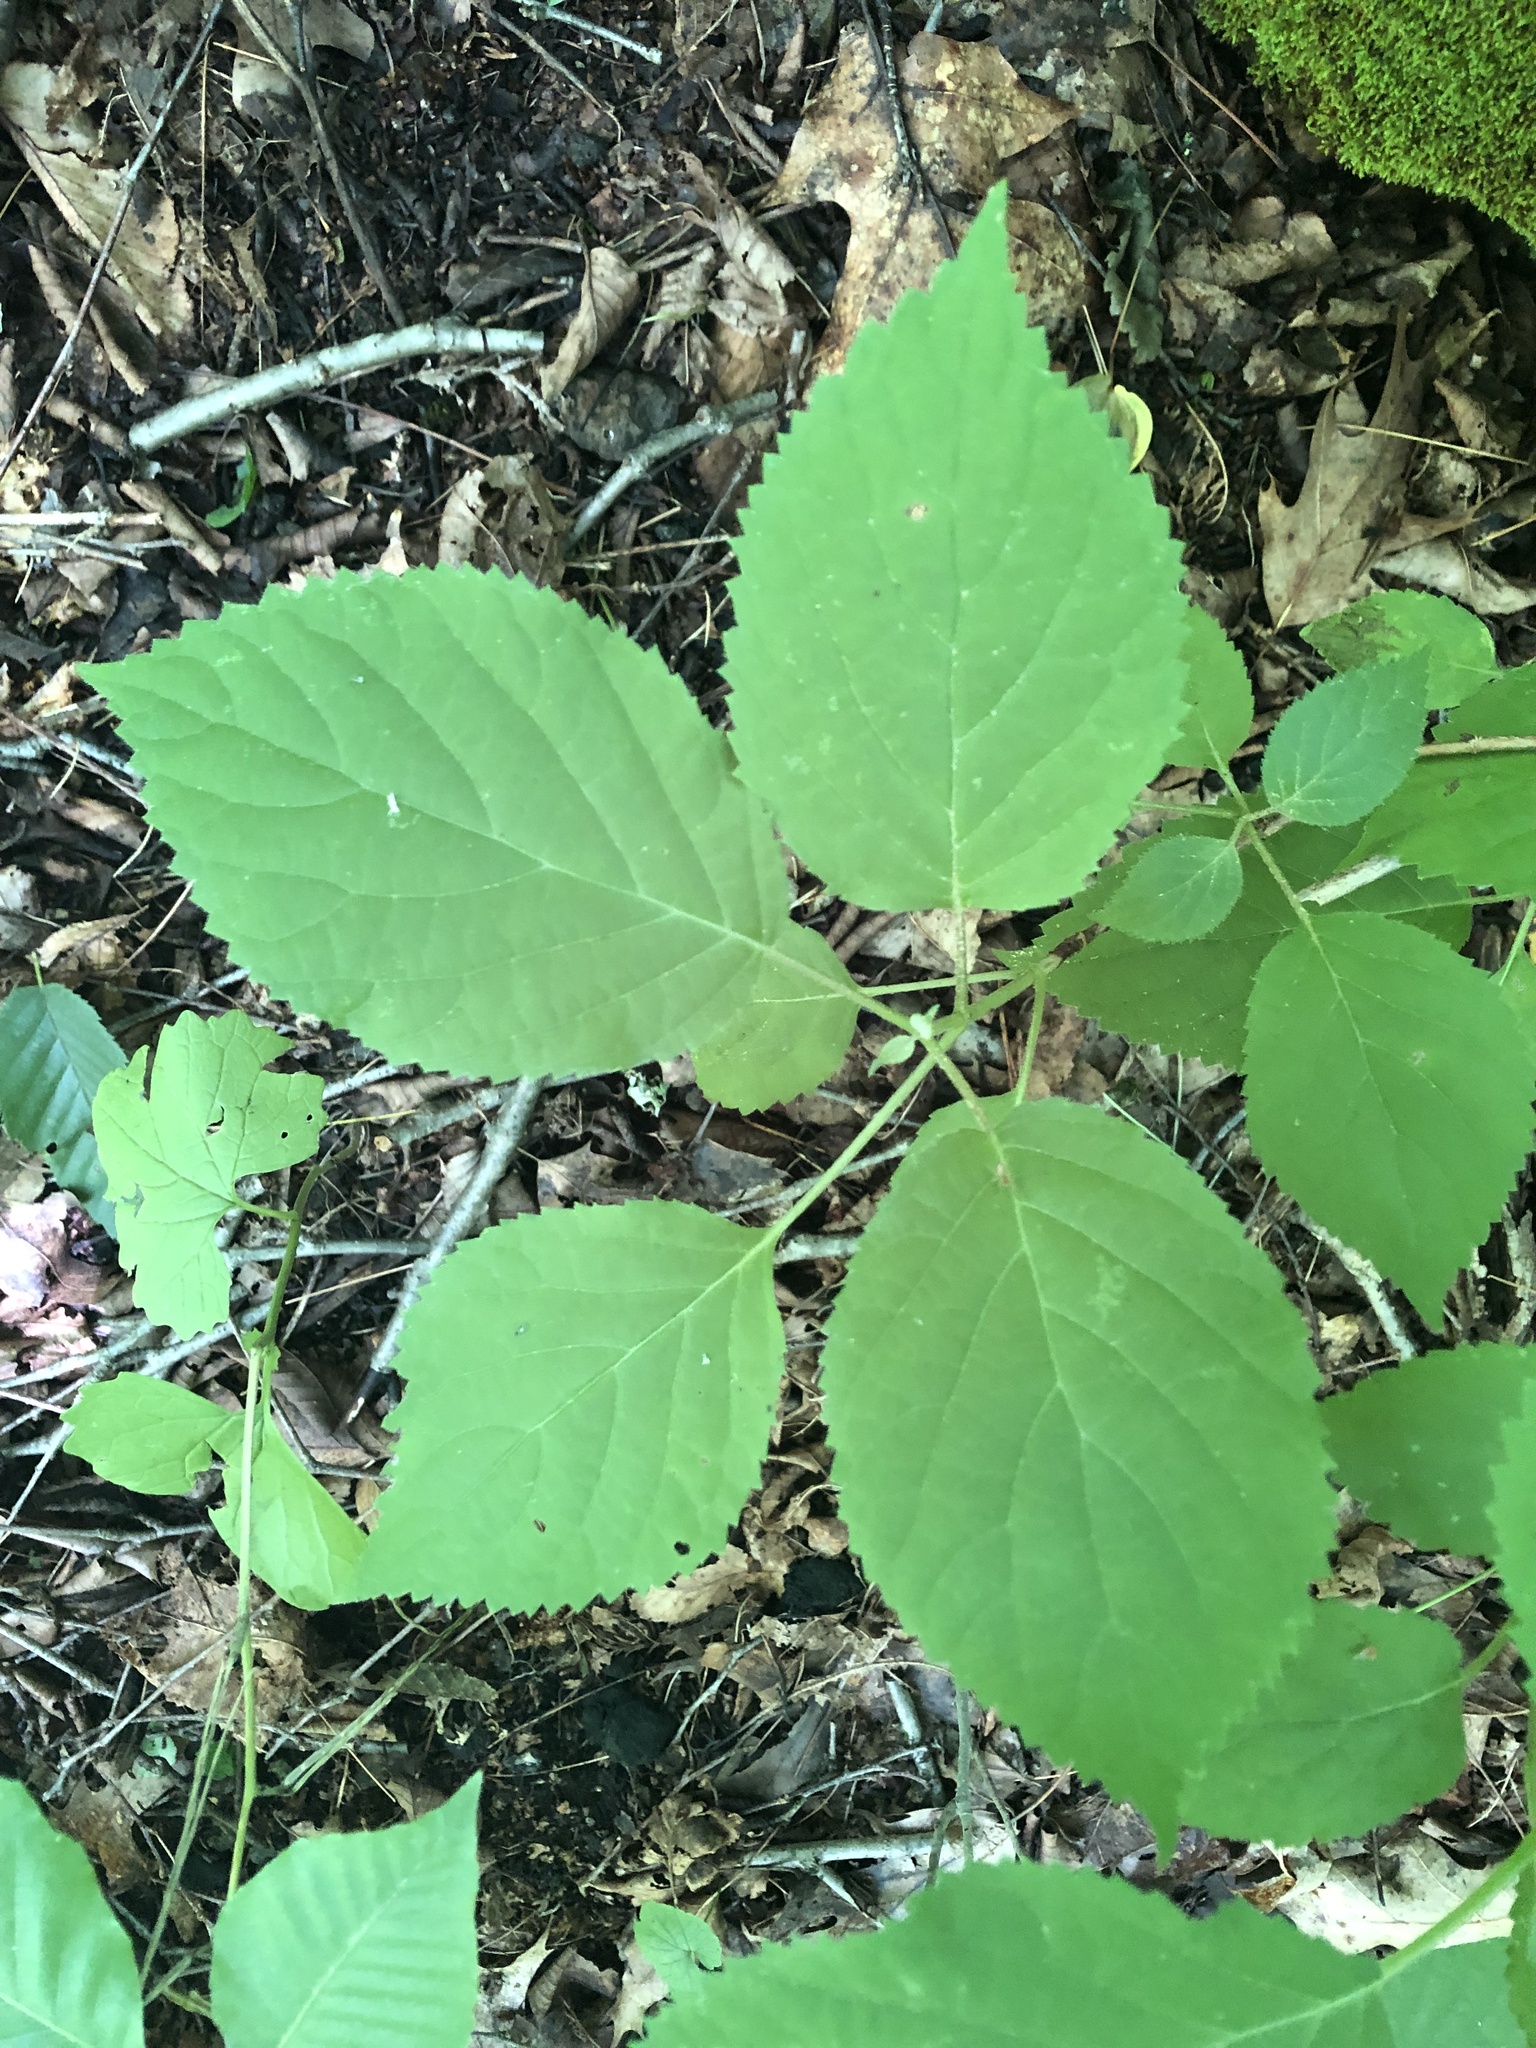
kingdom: Plantae
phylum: Tracheophyta
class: Magnoliopsida
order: Cornales
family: Hydrangeaceae
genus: Hydrangea
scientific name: Hydrangea arborescens
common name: Sevenbark
